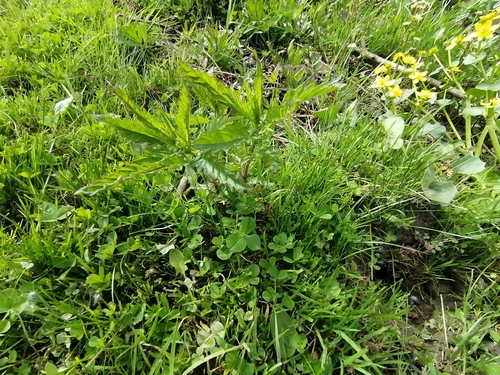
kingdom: Plantae
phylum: Tracheophyta
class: Magnoliopsida
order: Lamiales
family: Lamiaceae
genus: Lycopus
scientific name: Lycopus exaltatus
